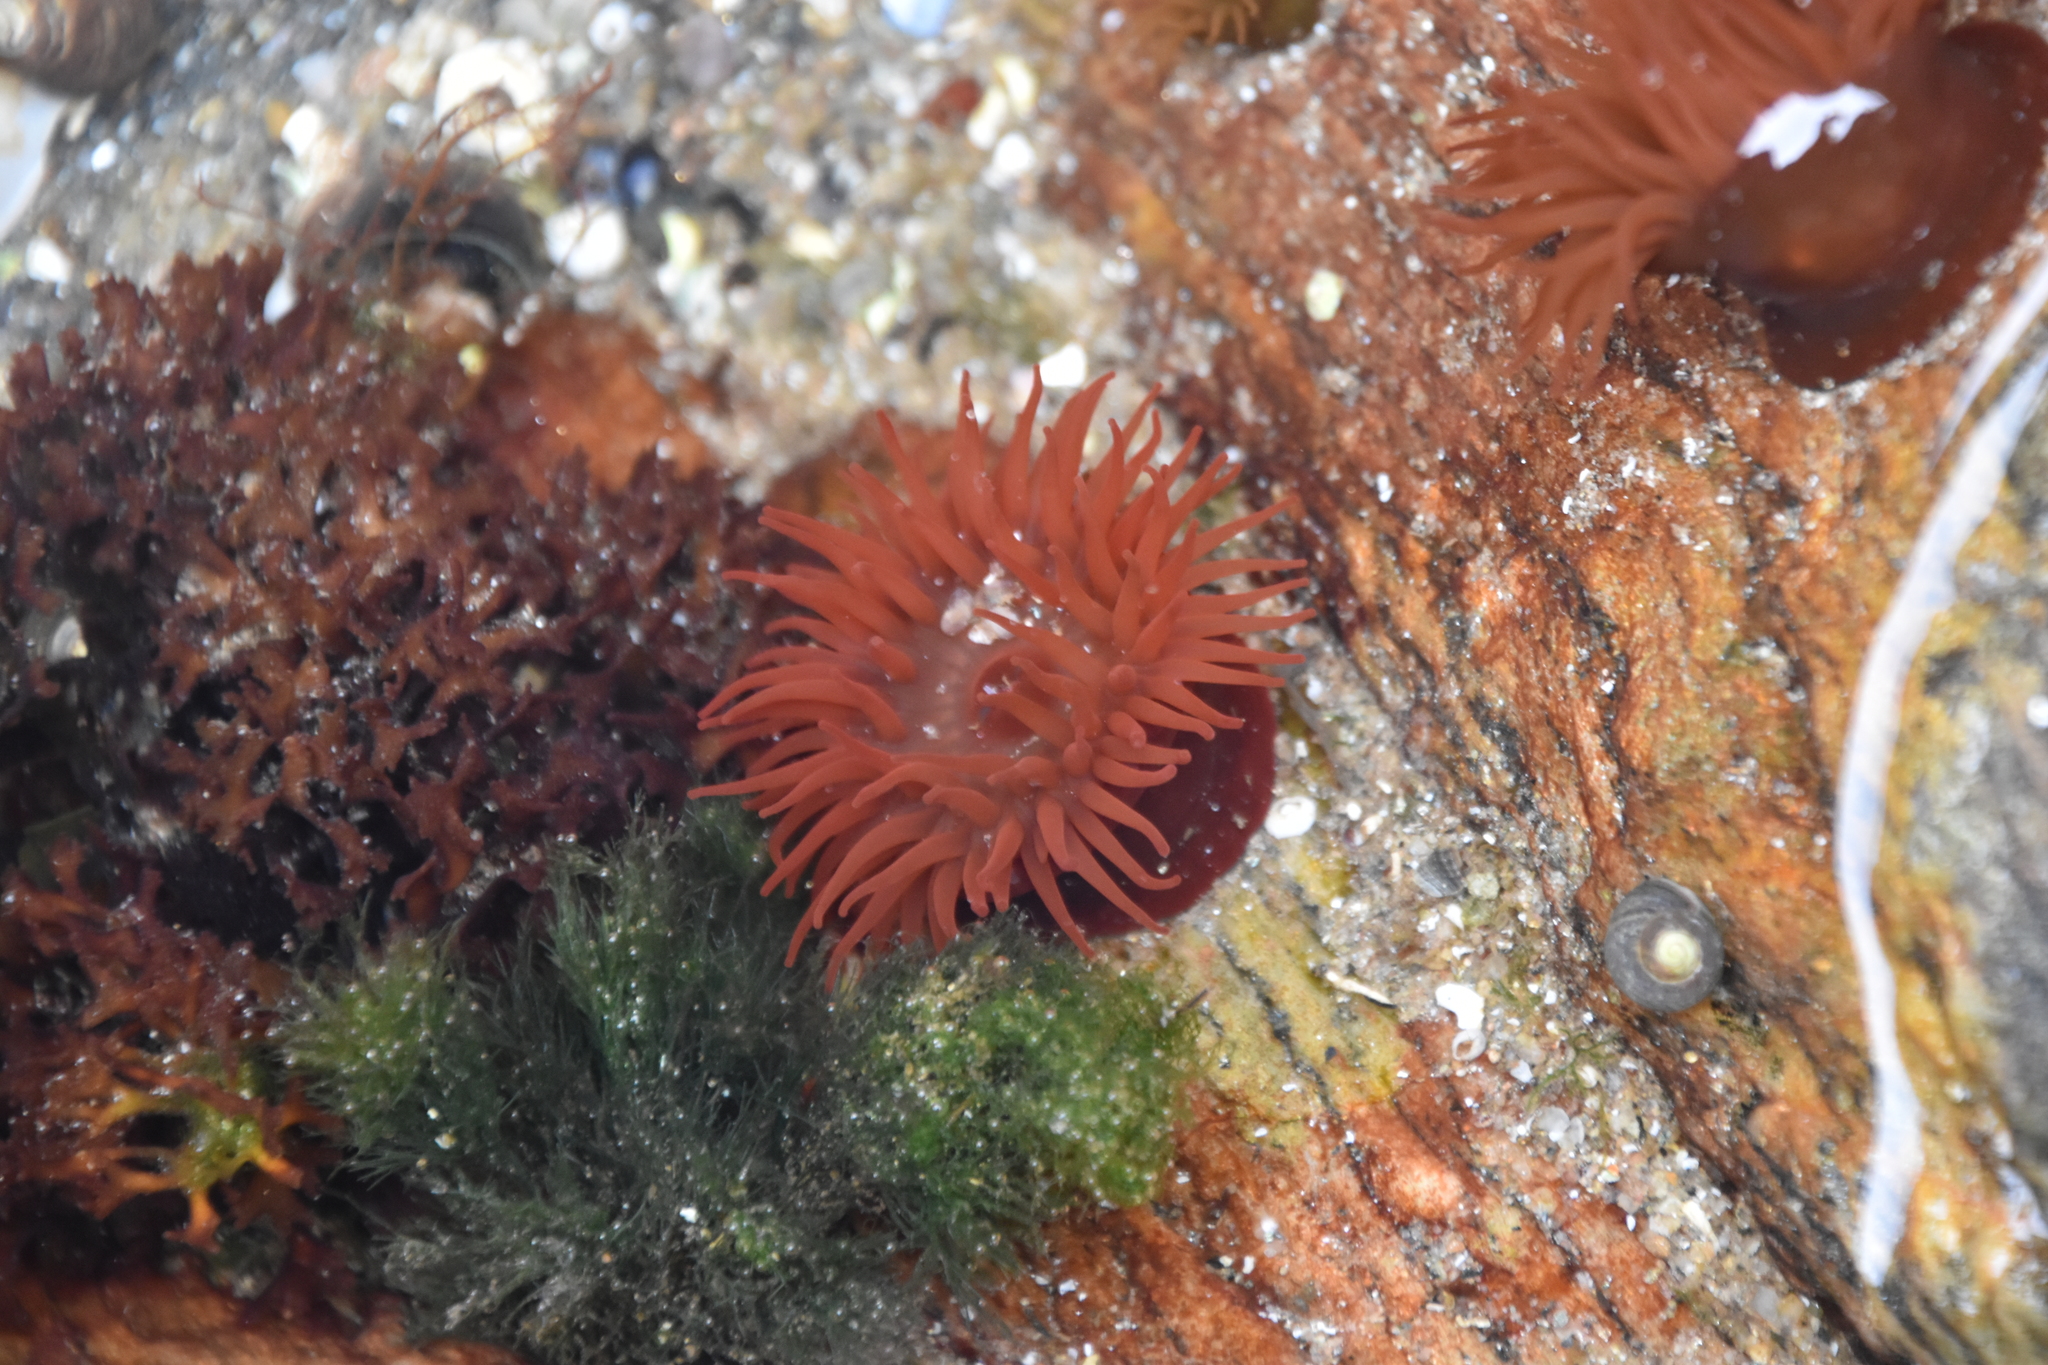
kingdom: Animalia
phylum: Cnidaria
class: Anthozoa
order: Actiniaria
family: Actiniidae
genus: Actinia
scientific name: Actinia equina
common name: Beadlet anemone
